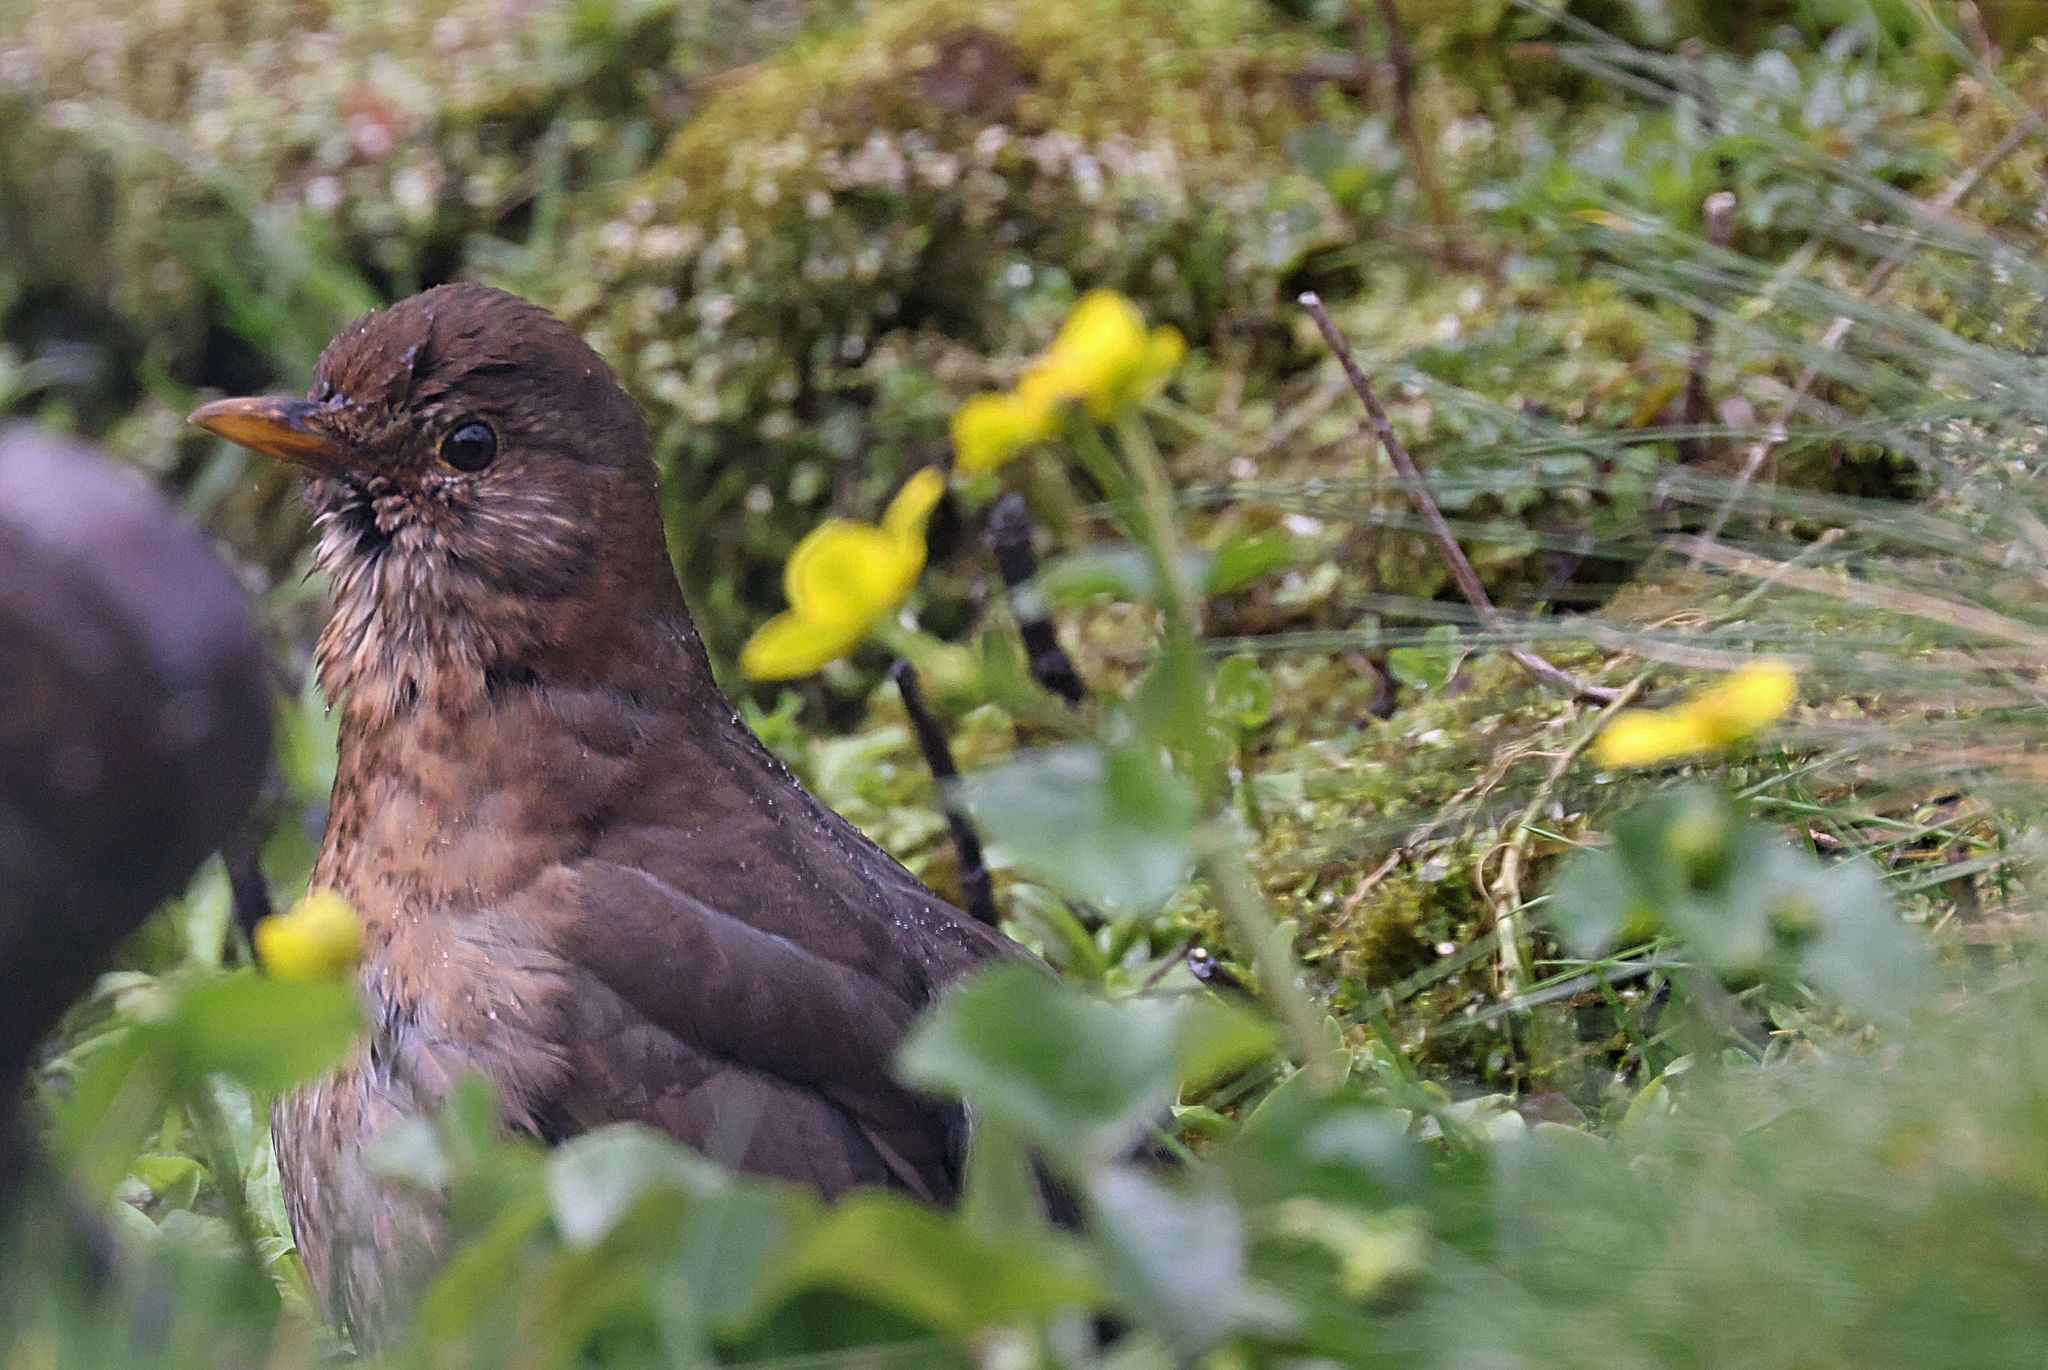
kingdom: Animalia
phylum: Chordata
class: Aves
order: Passeriformes
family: Turdidae
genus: Turdus
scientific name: Turdus merula
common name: Common blackbird
